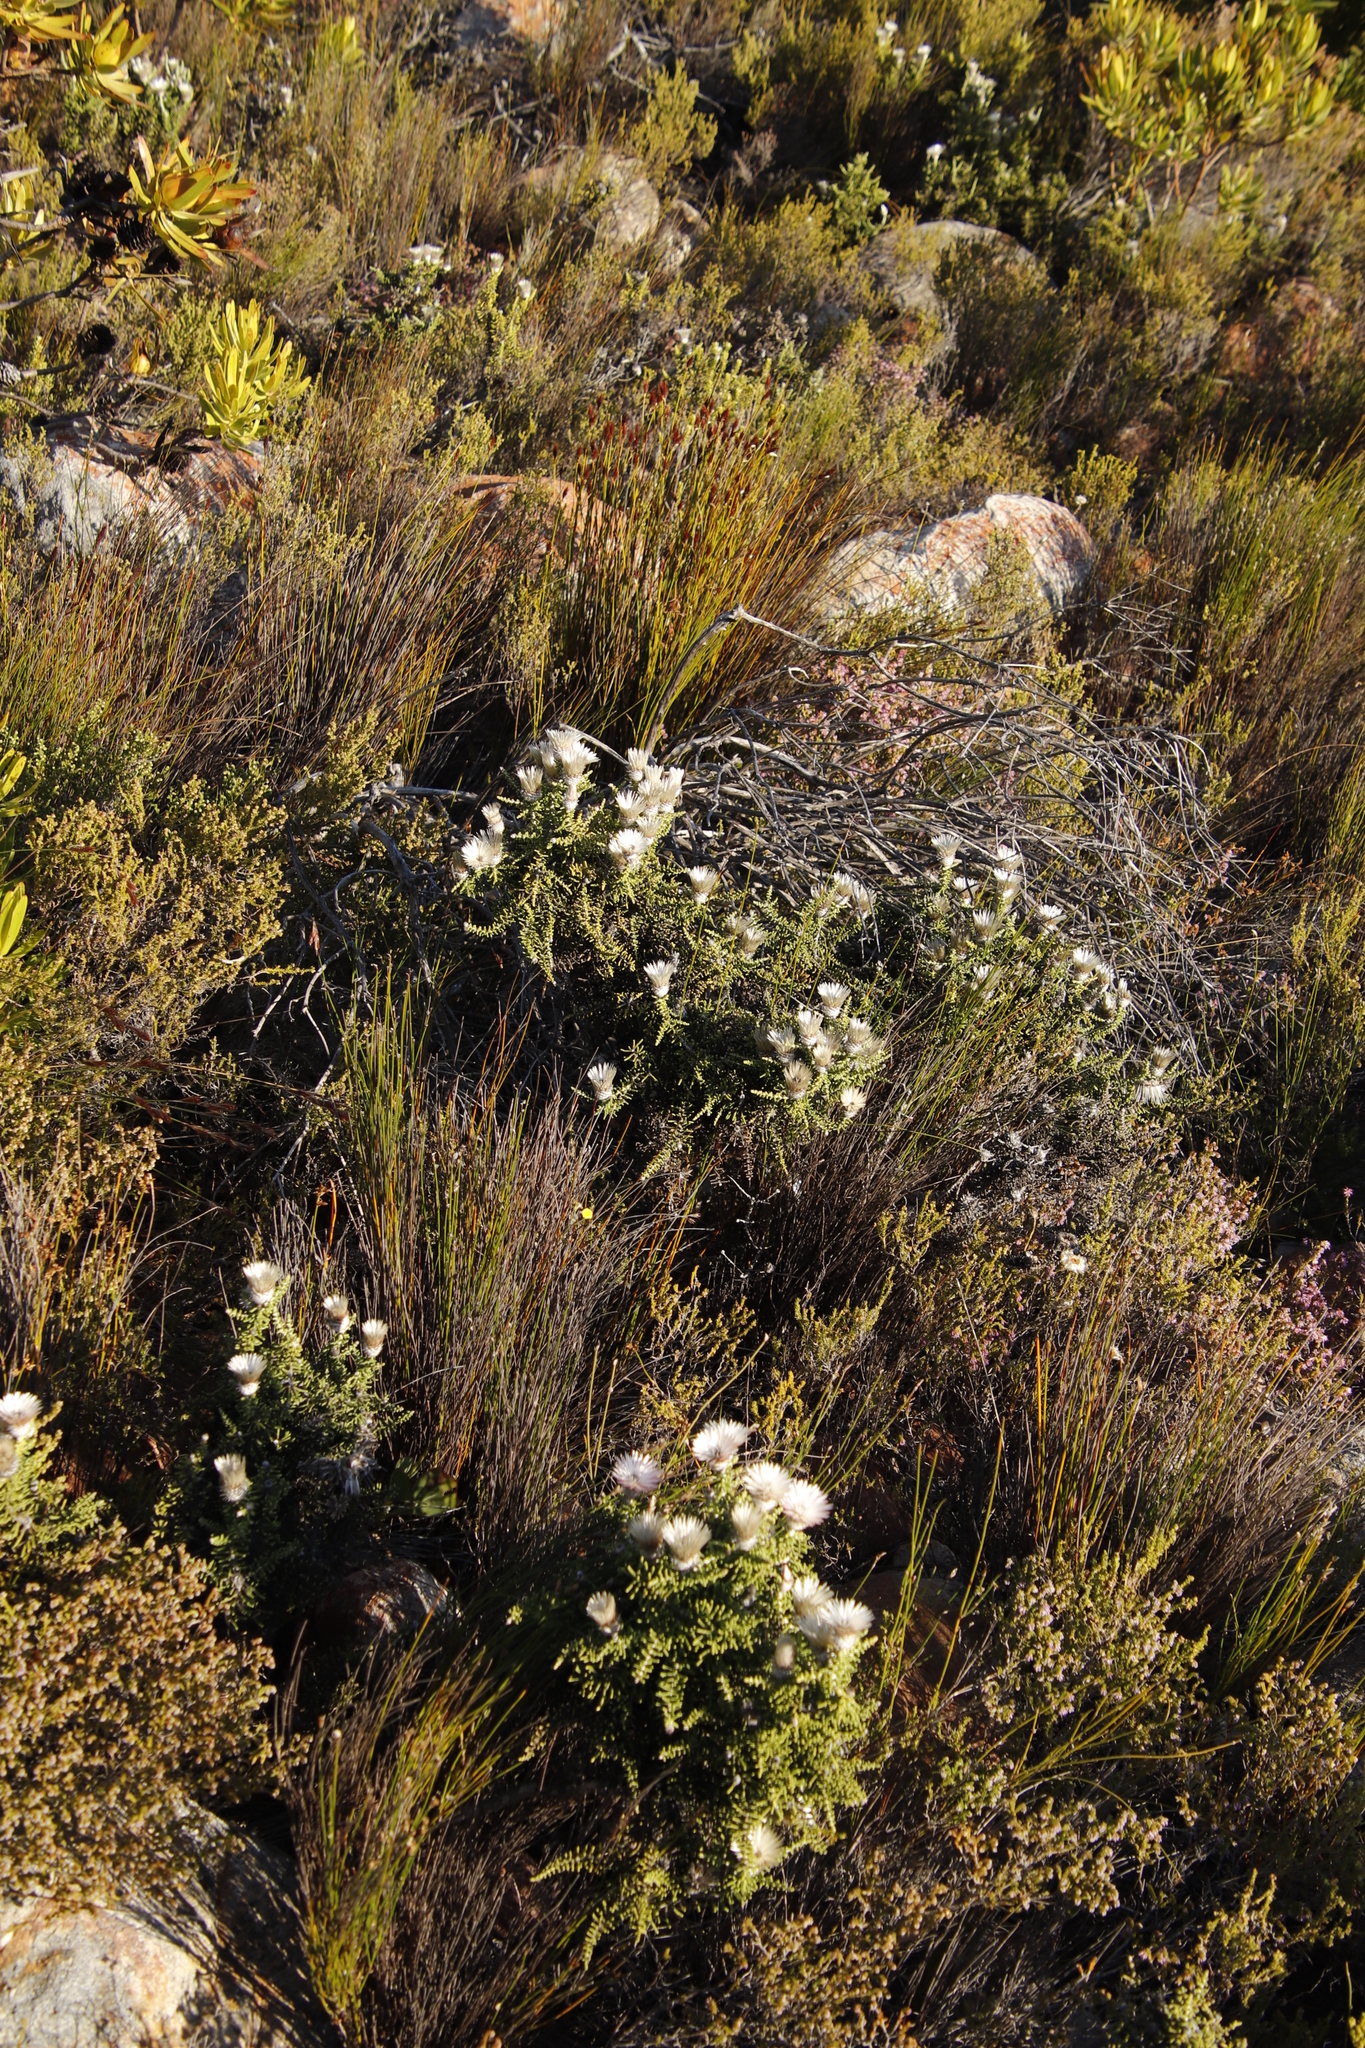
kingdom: Plantae
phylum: Tracheophyta
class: Magnoliopsida
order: Asterales
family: Asteraceae
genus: Phaenocoma
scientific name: Phaenocoma prolifera
